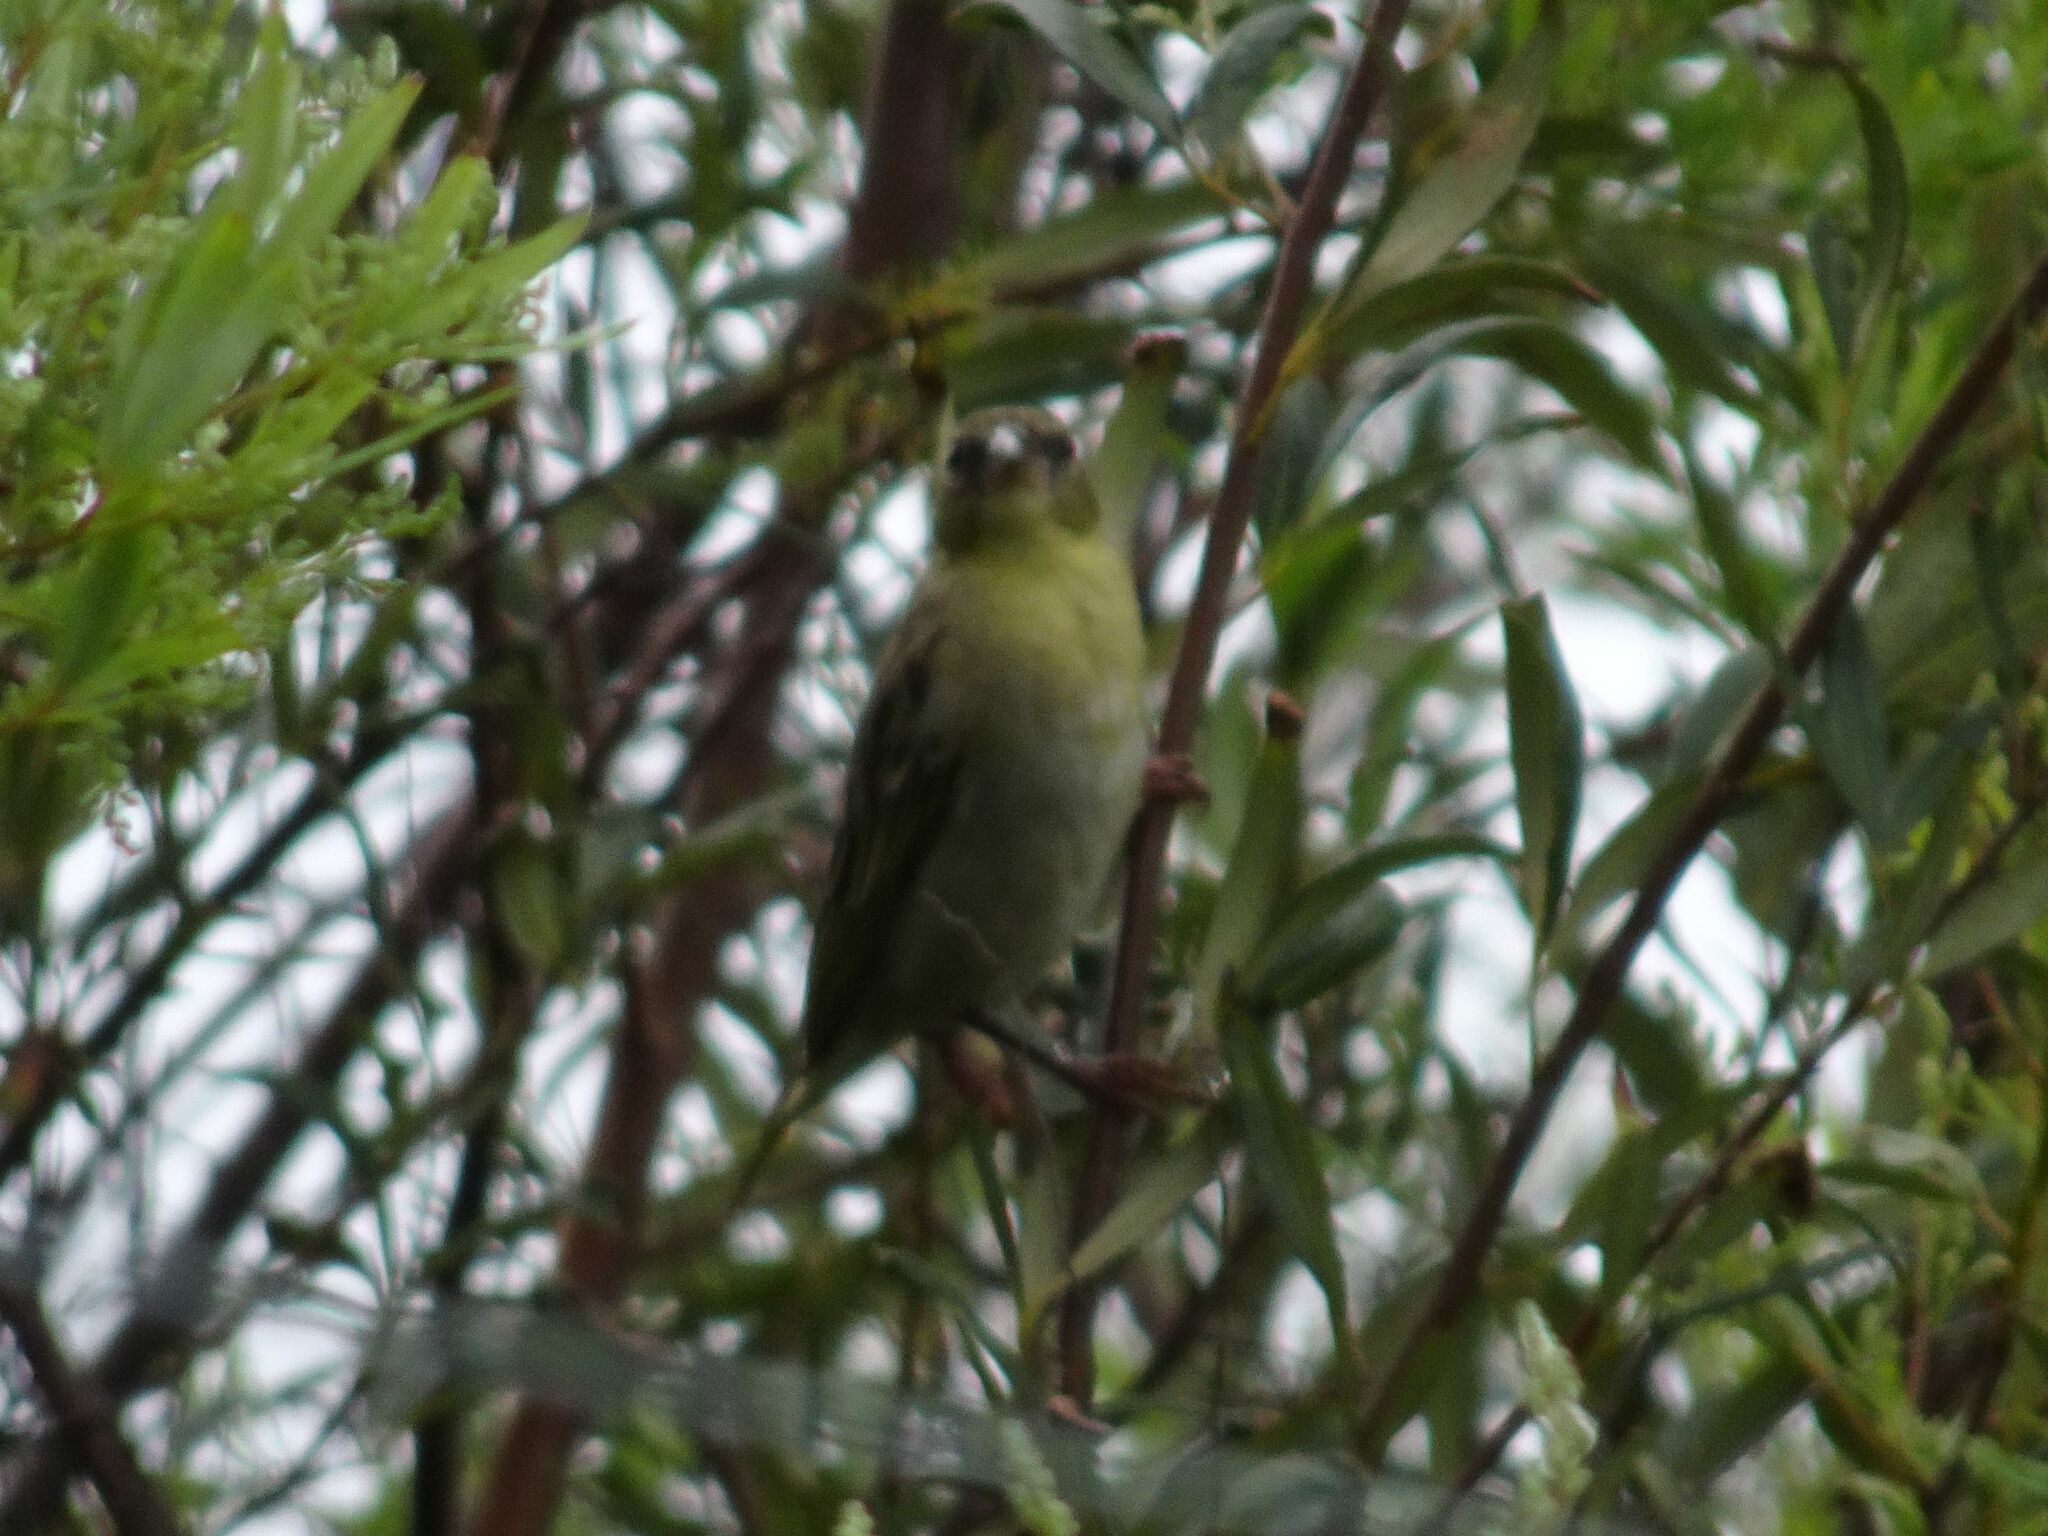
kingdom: Animalia
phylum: Chordata
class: Aves
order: Passeriformes
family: Ploceidae
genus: Ploceus
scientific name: Ploceus velatus
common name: Southern masked weaver
